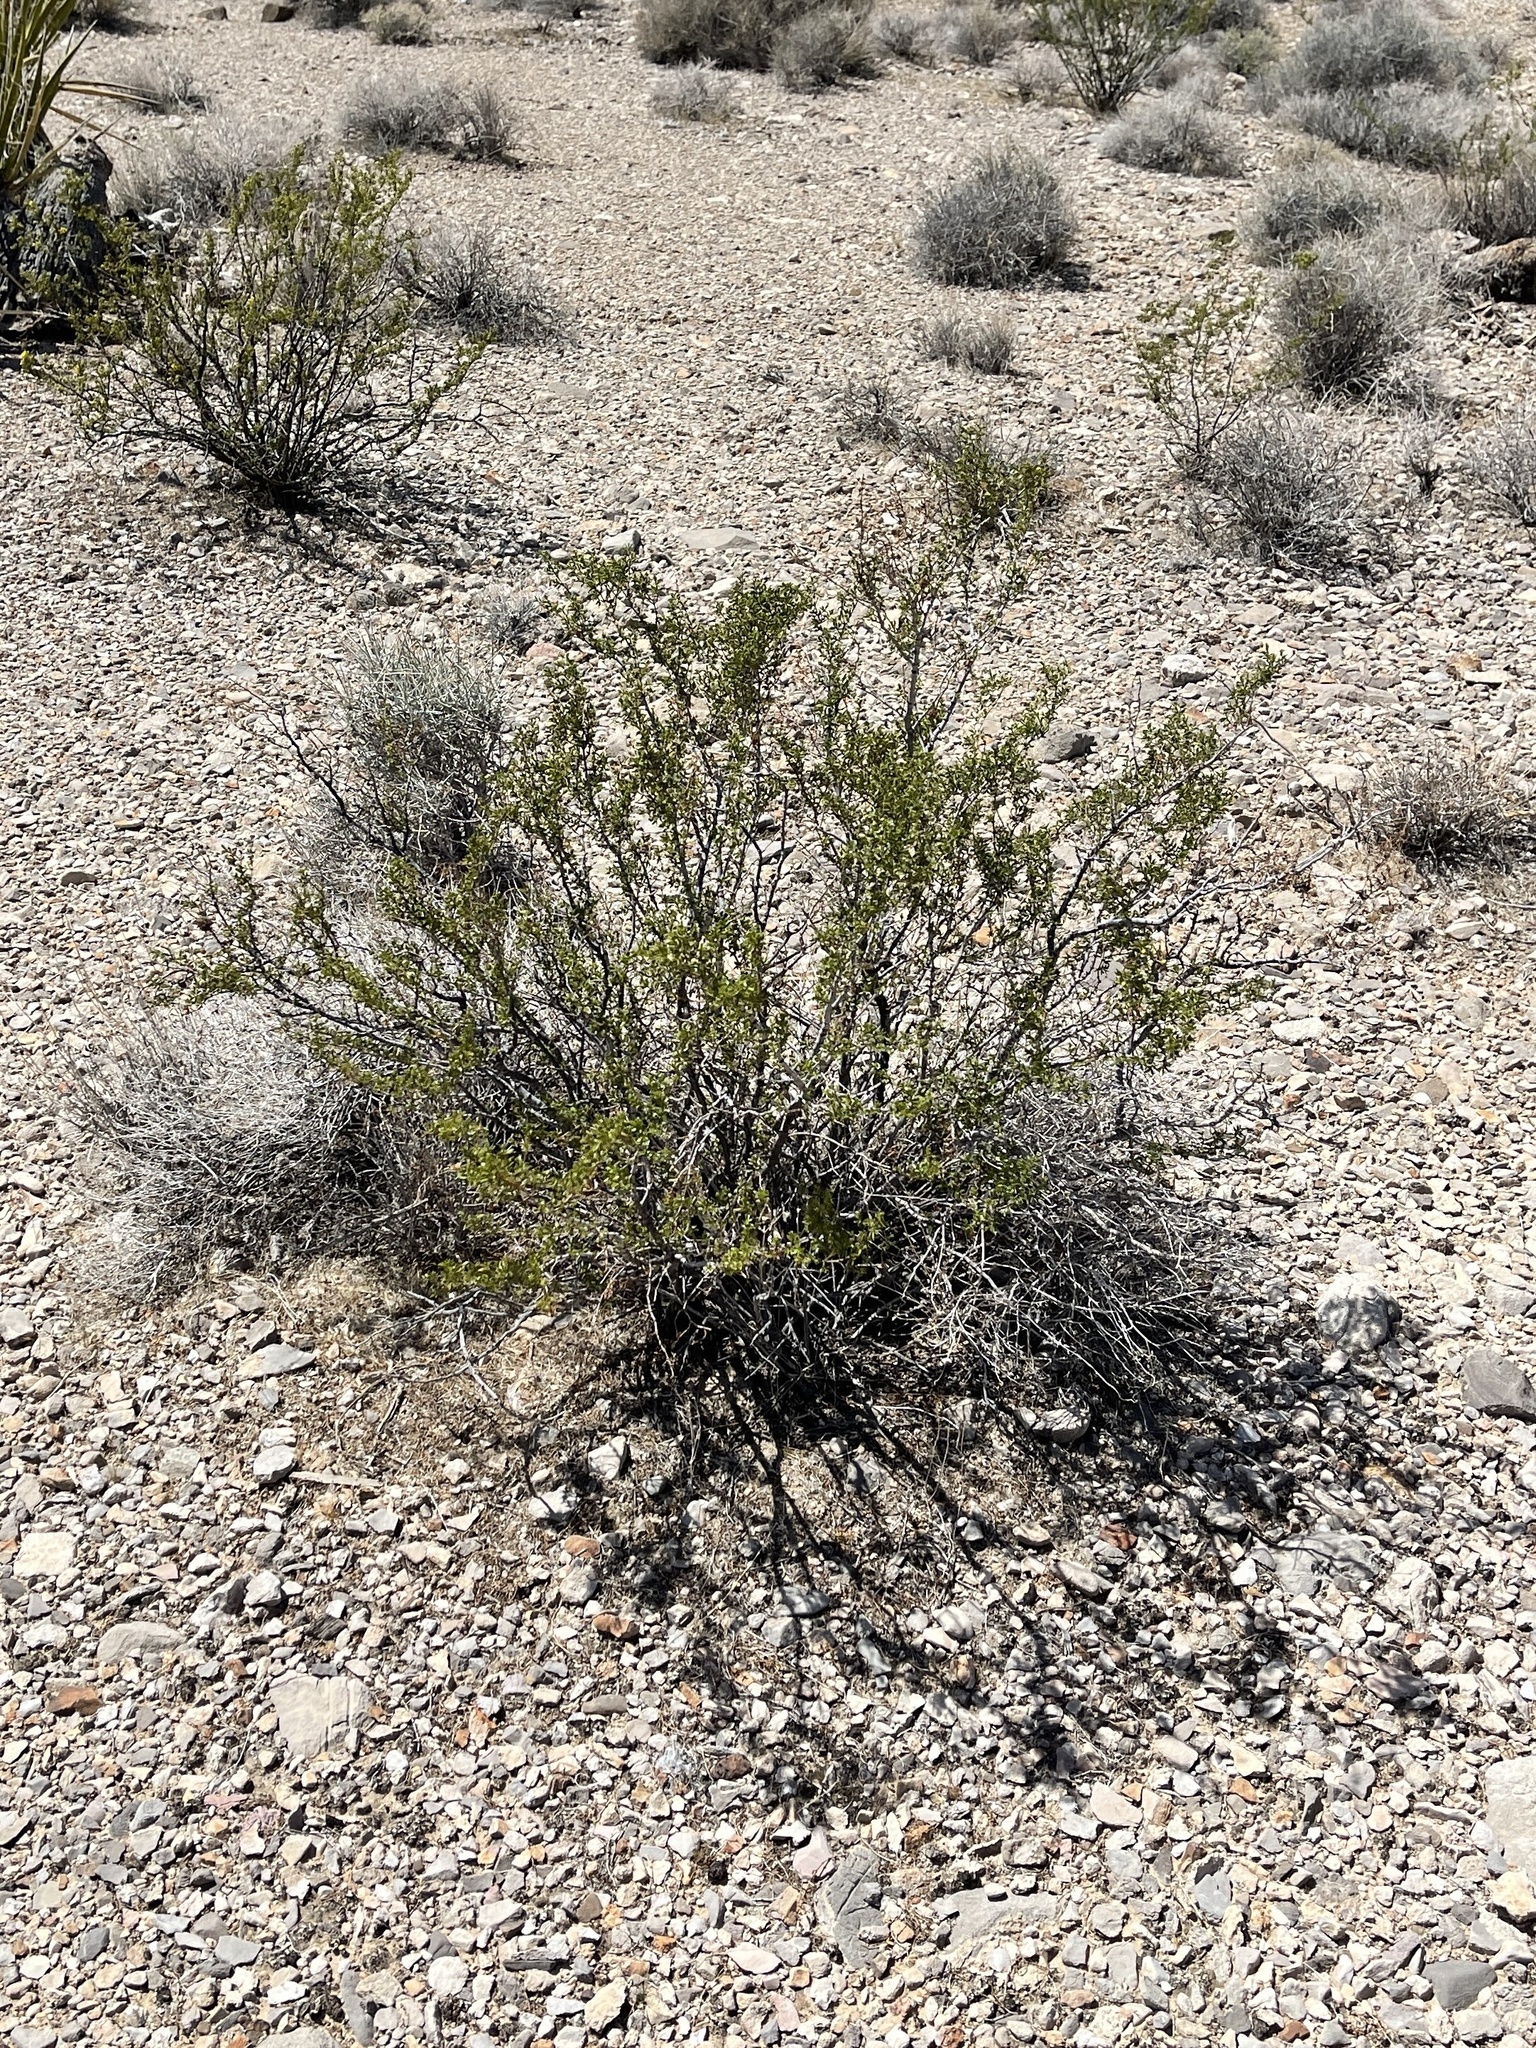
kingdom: Plantae
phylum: Tracheophyta
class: Magnoliopsida
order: Zygophyllales
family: Zygophyllaceae
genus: Larrea
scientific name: Larrea tridentata
